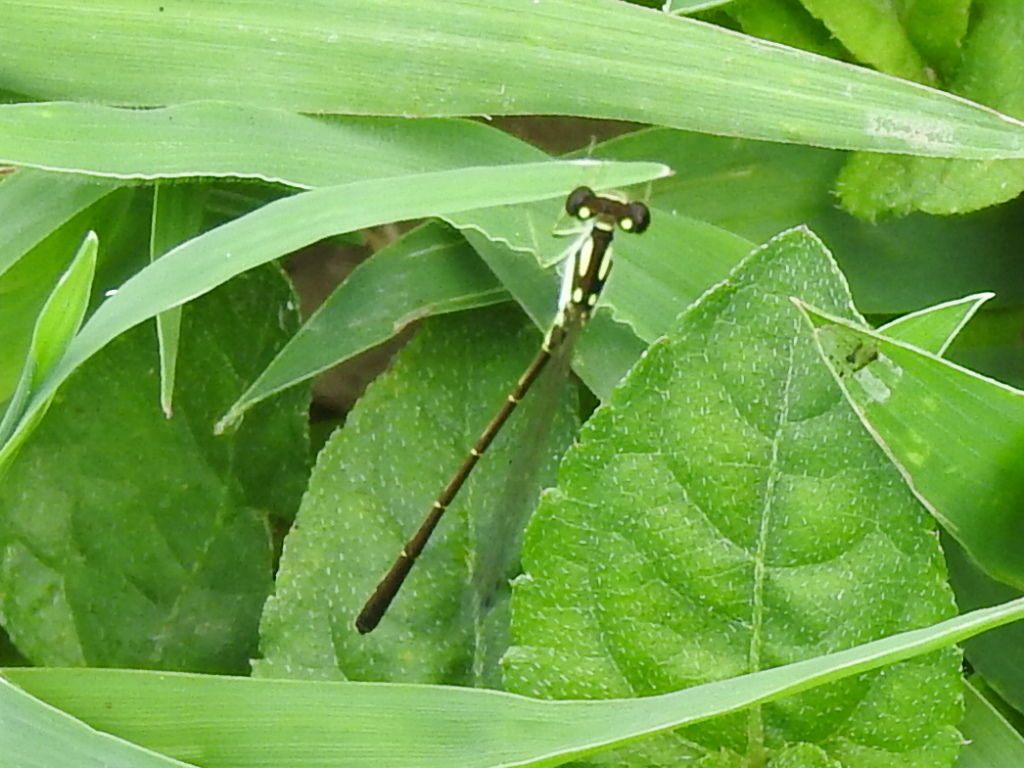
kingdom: Animalia
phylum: Arthropoda
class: Insecta
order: Odonata
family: Coenagrionidae
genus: Ischnura
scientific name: Ischnura posita
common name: Fragile forktail
